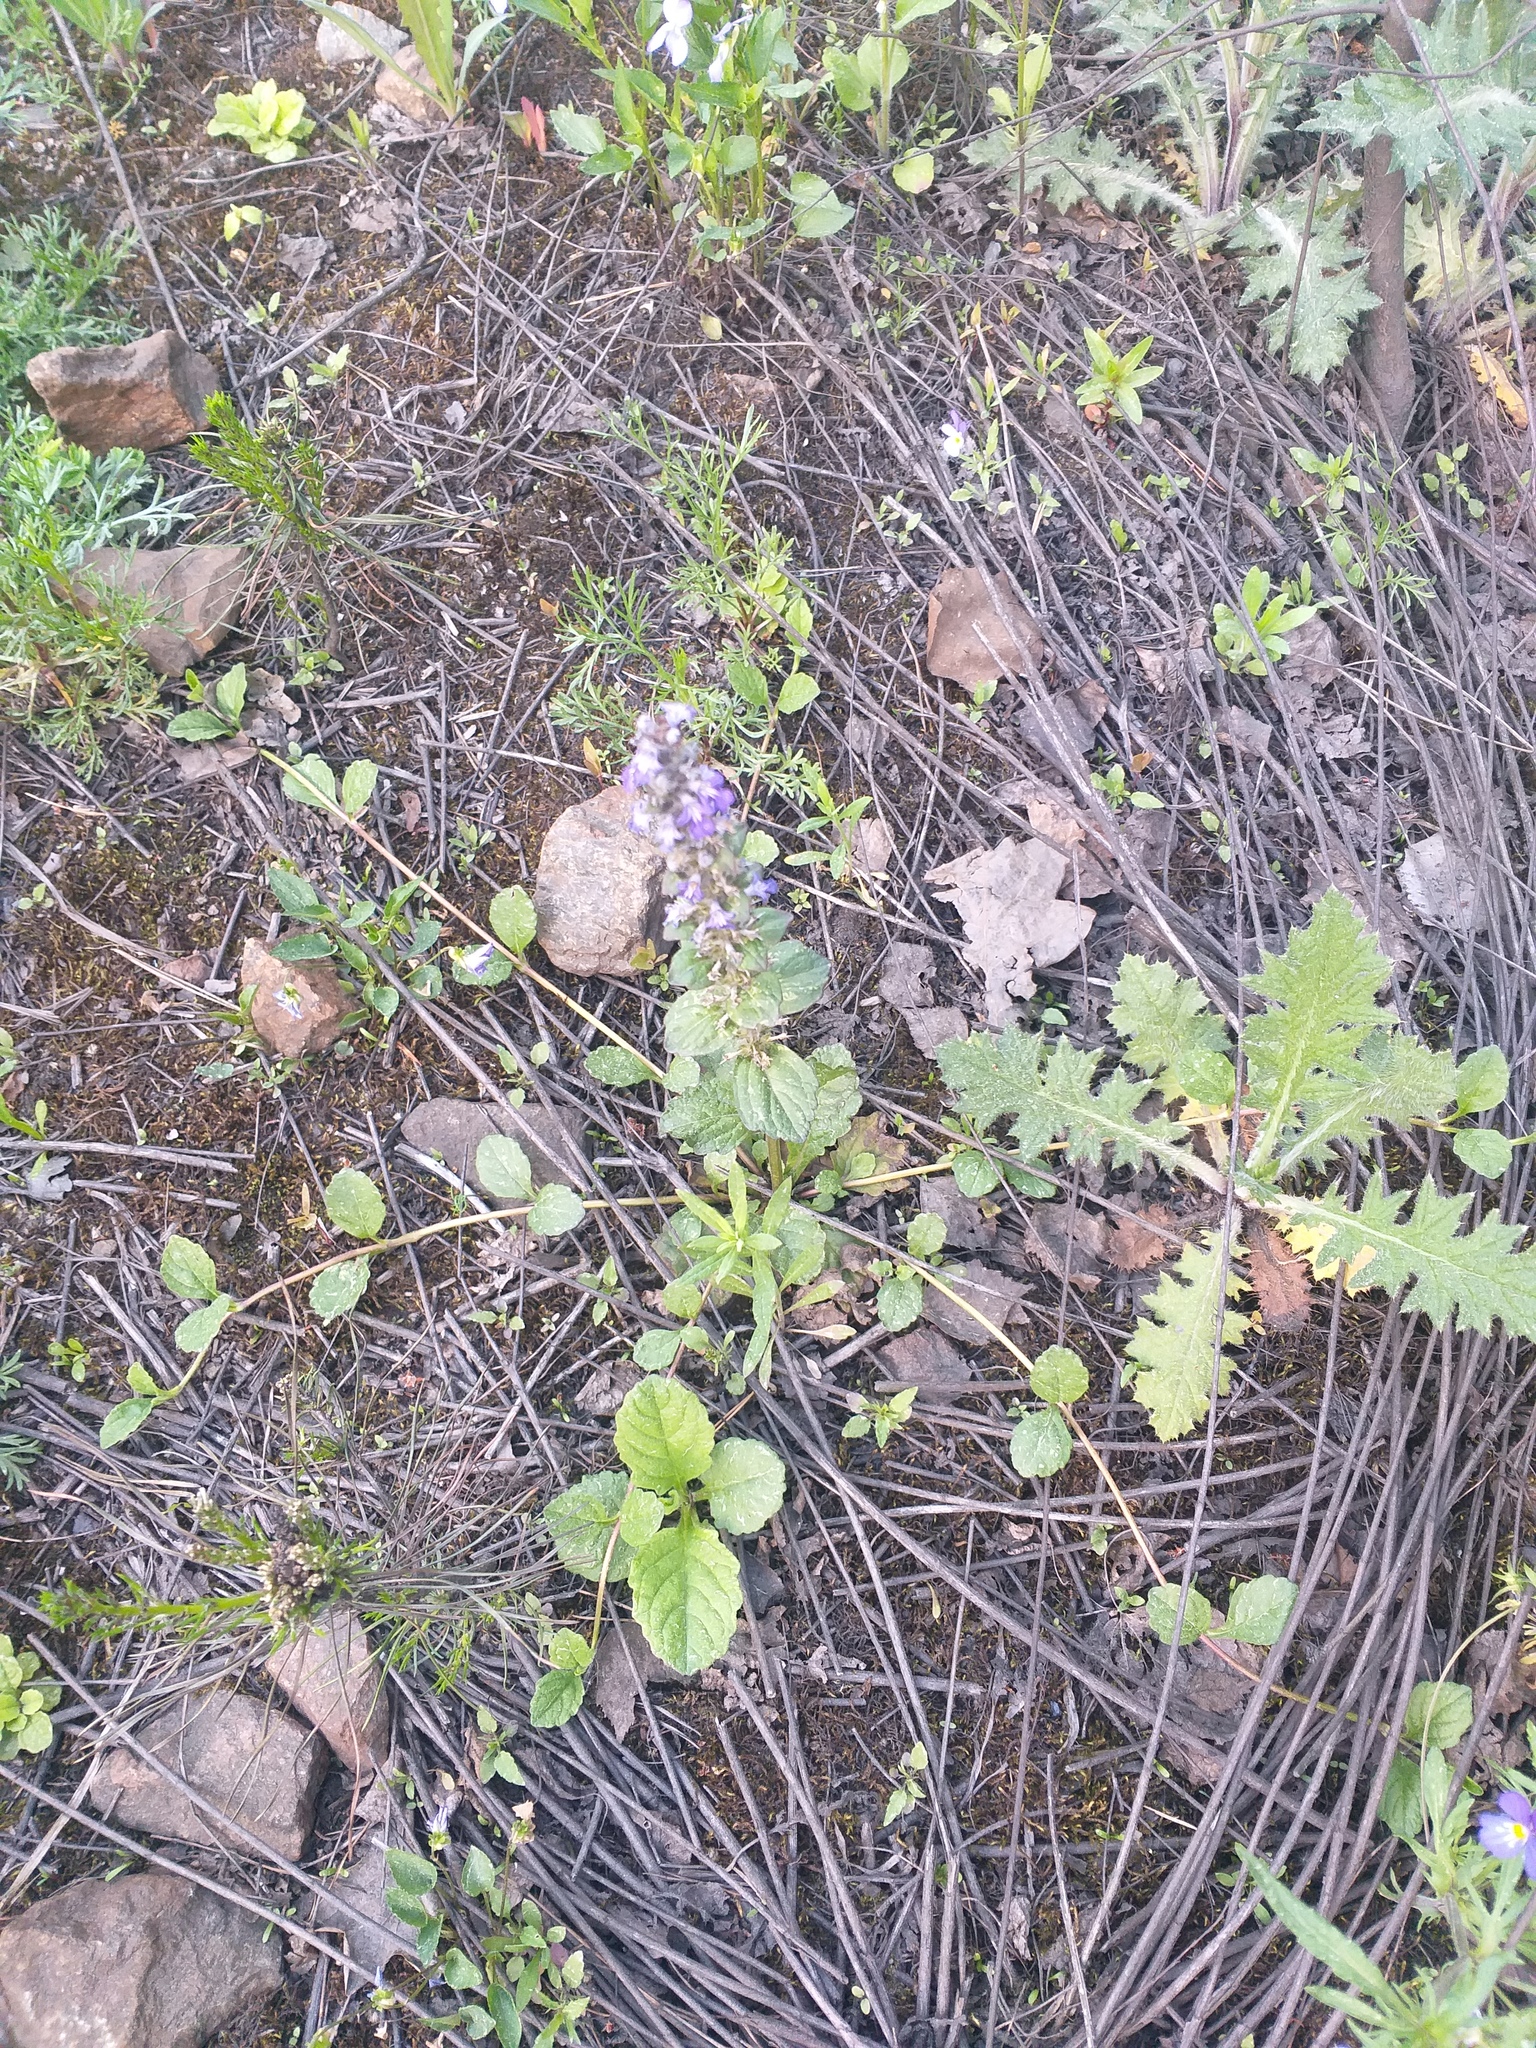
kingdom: Plantae
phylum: Tracheophyta
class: Magnoliopsida
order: Lamiales
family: Lamiaceae
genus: Ajuga
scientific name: Ajuga reptans
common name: Bugle
